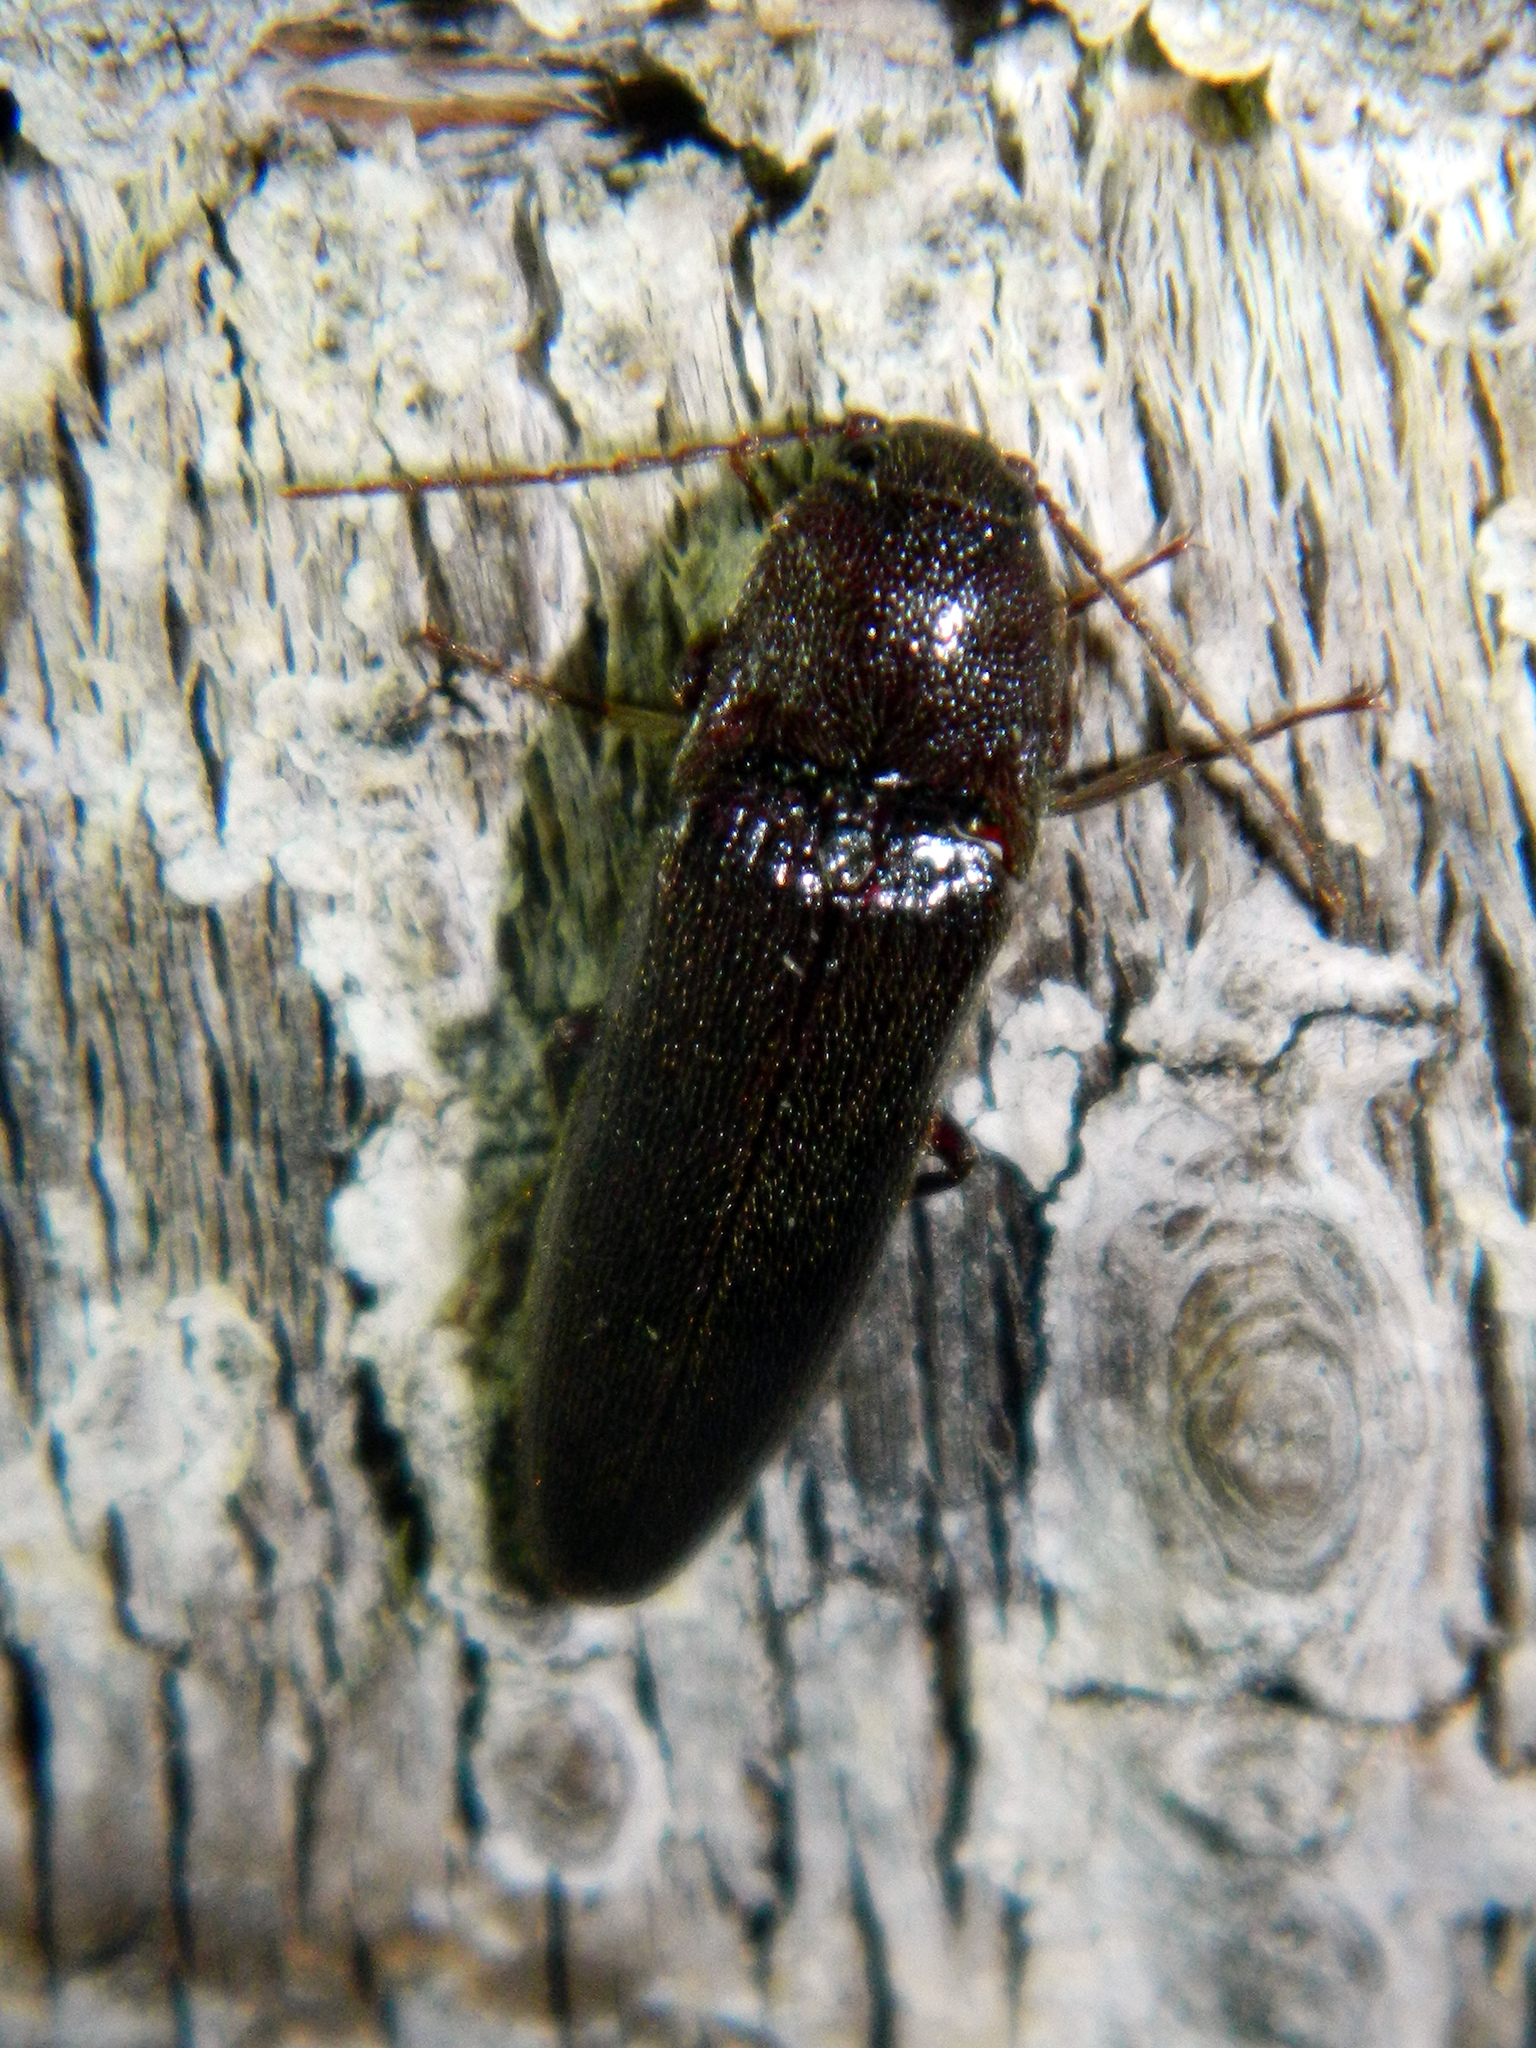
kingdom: Animalia
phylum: Arthropoda
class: Insecta
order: Coleoptera
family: Elateridae
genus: Melanotus
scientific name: Melanotus castanipes
